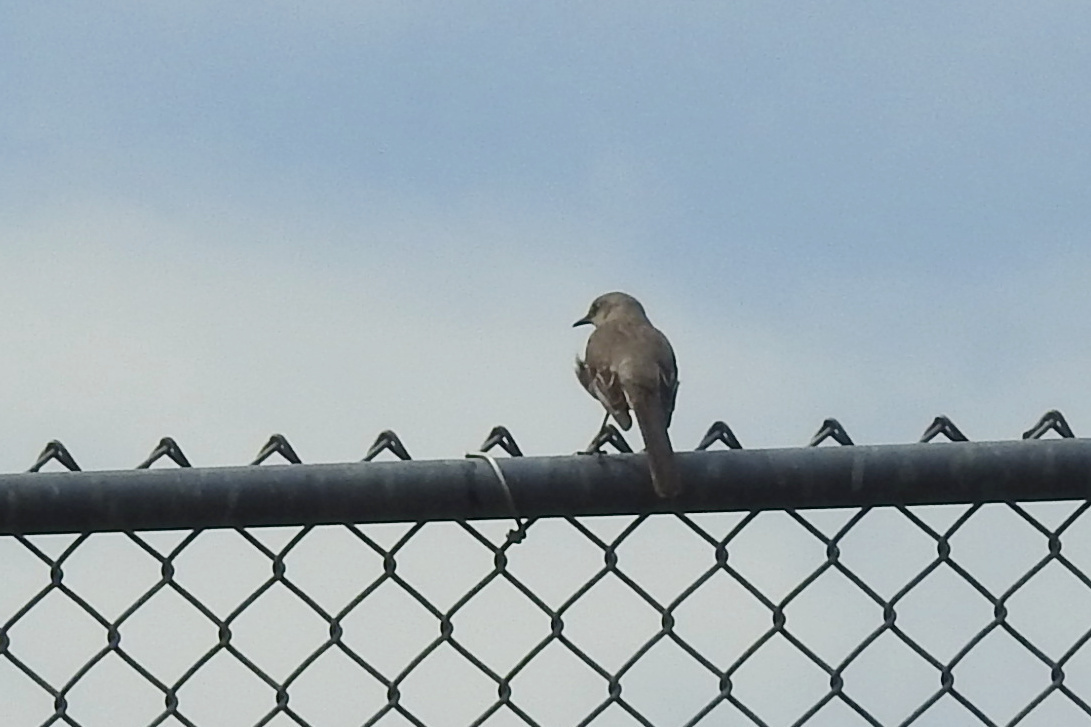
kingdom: Animalia
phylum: Chordata
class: Aves
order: Passeriformes
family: Mimidae
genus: Mimus
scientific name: Mimus polyglottos
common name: Northern mockingbird
